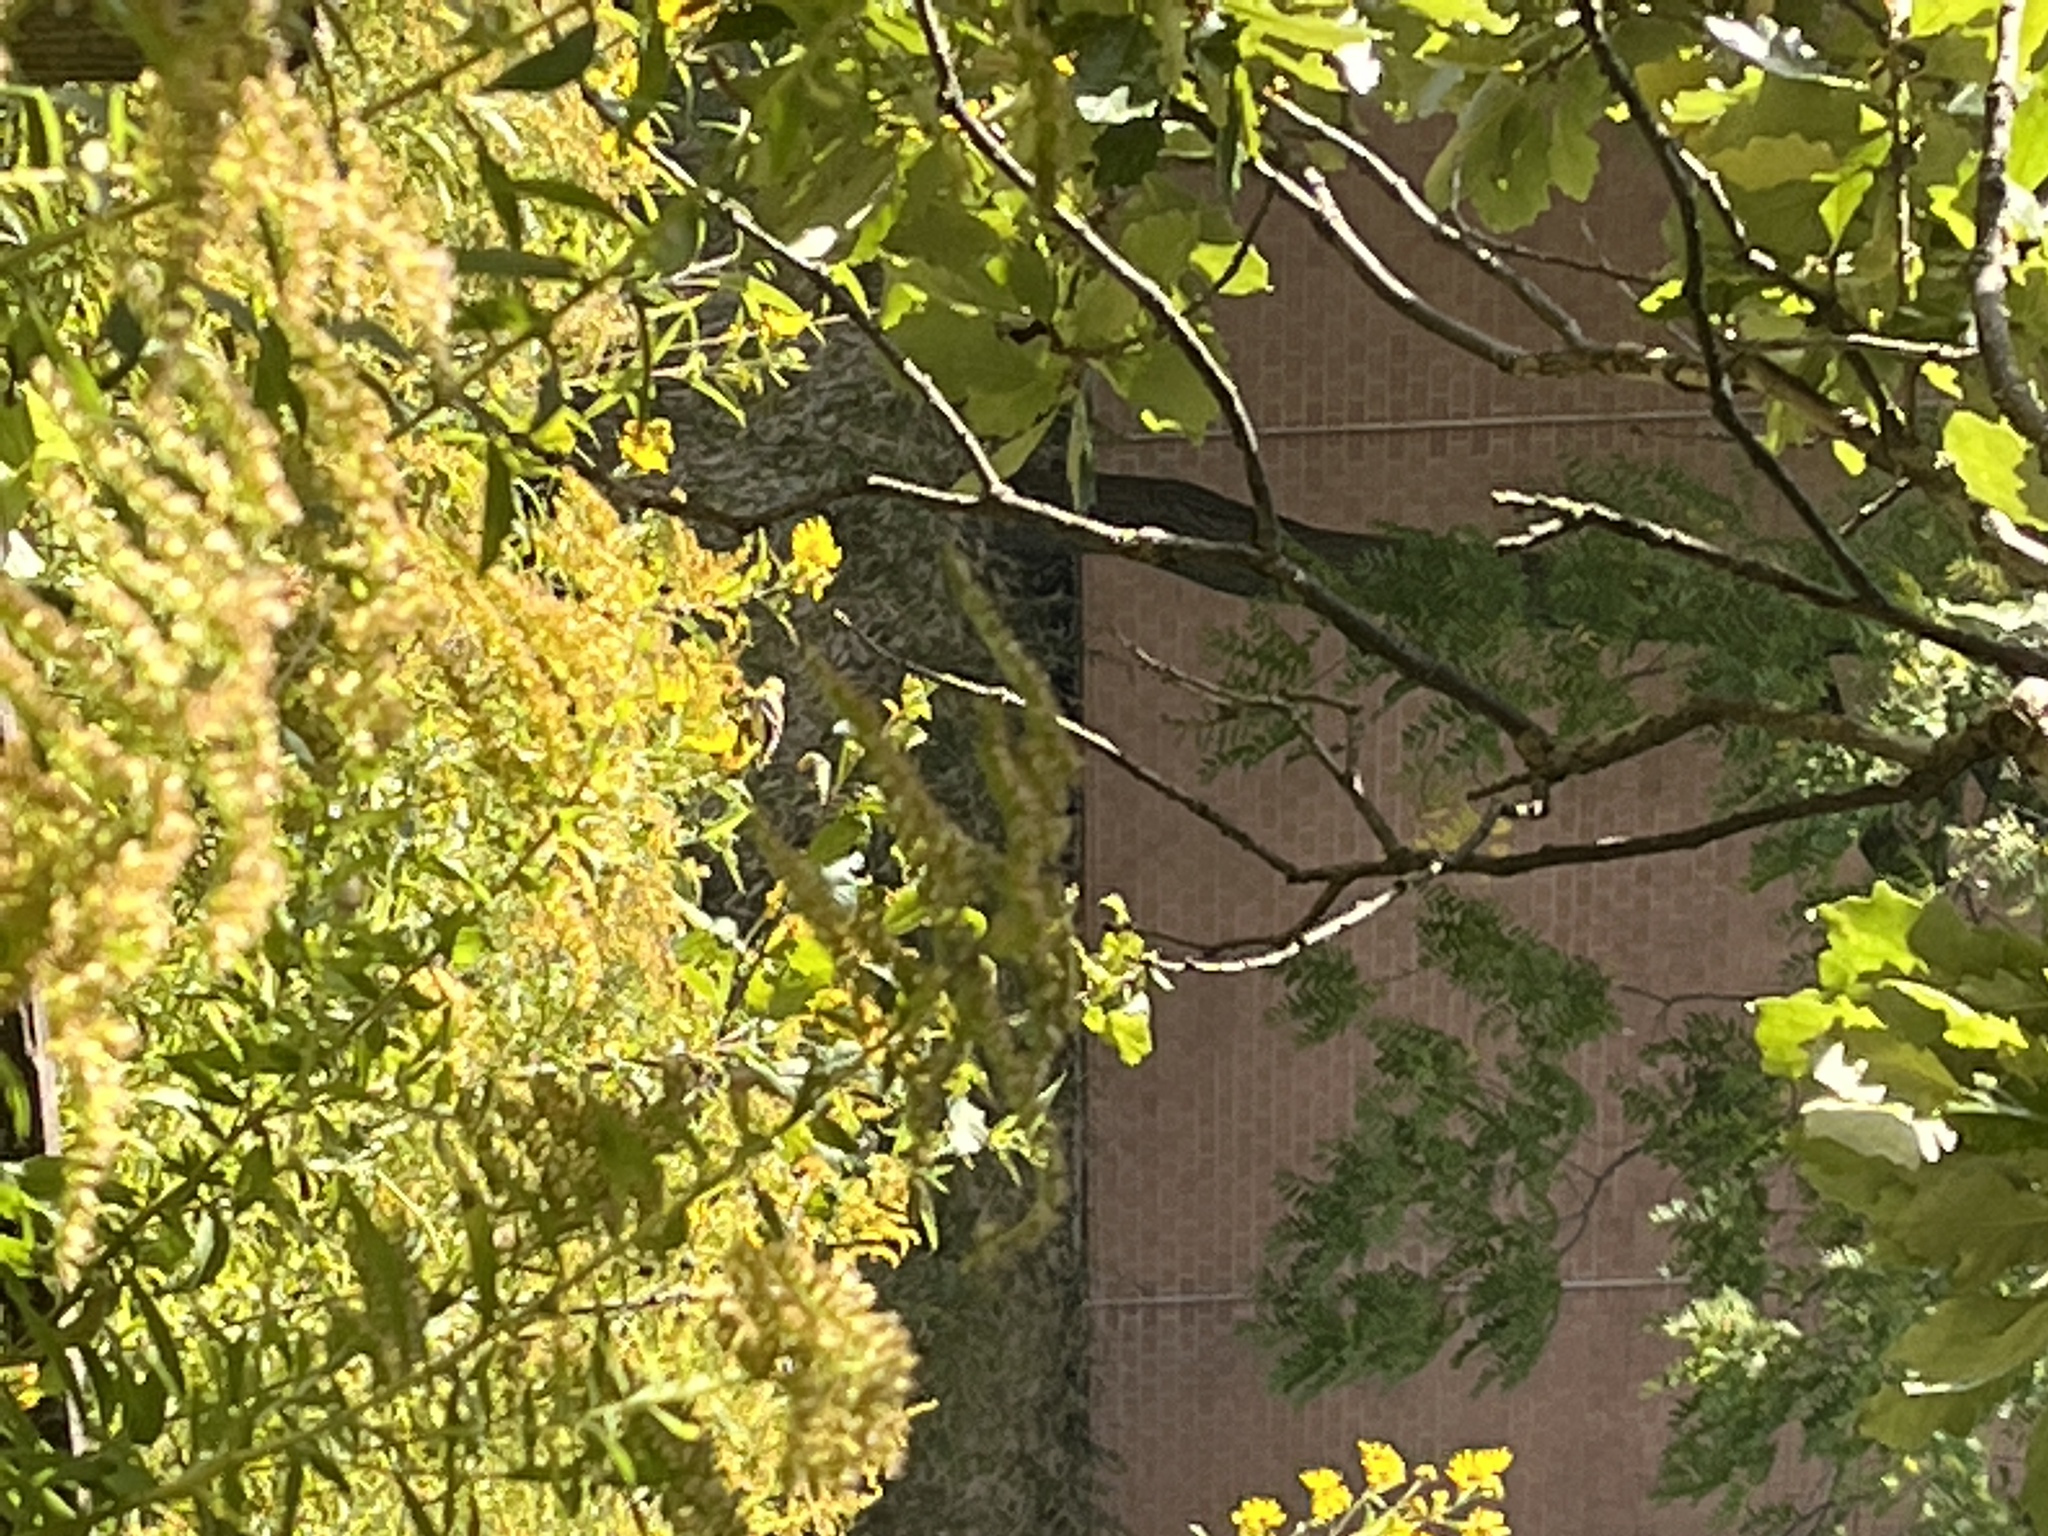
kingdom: Animalia
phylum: Chordata
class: Aves
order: Passeriformes
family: Fringillidae
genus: Spinus
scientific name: Spinus tristis
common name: American goldfinch
